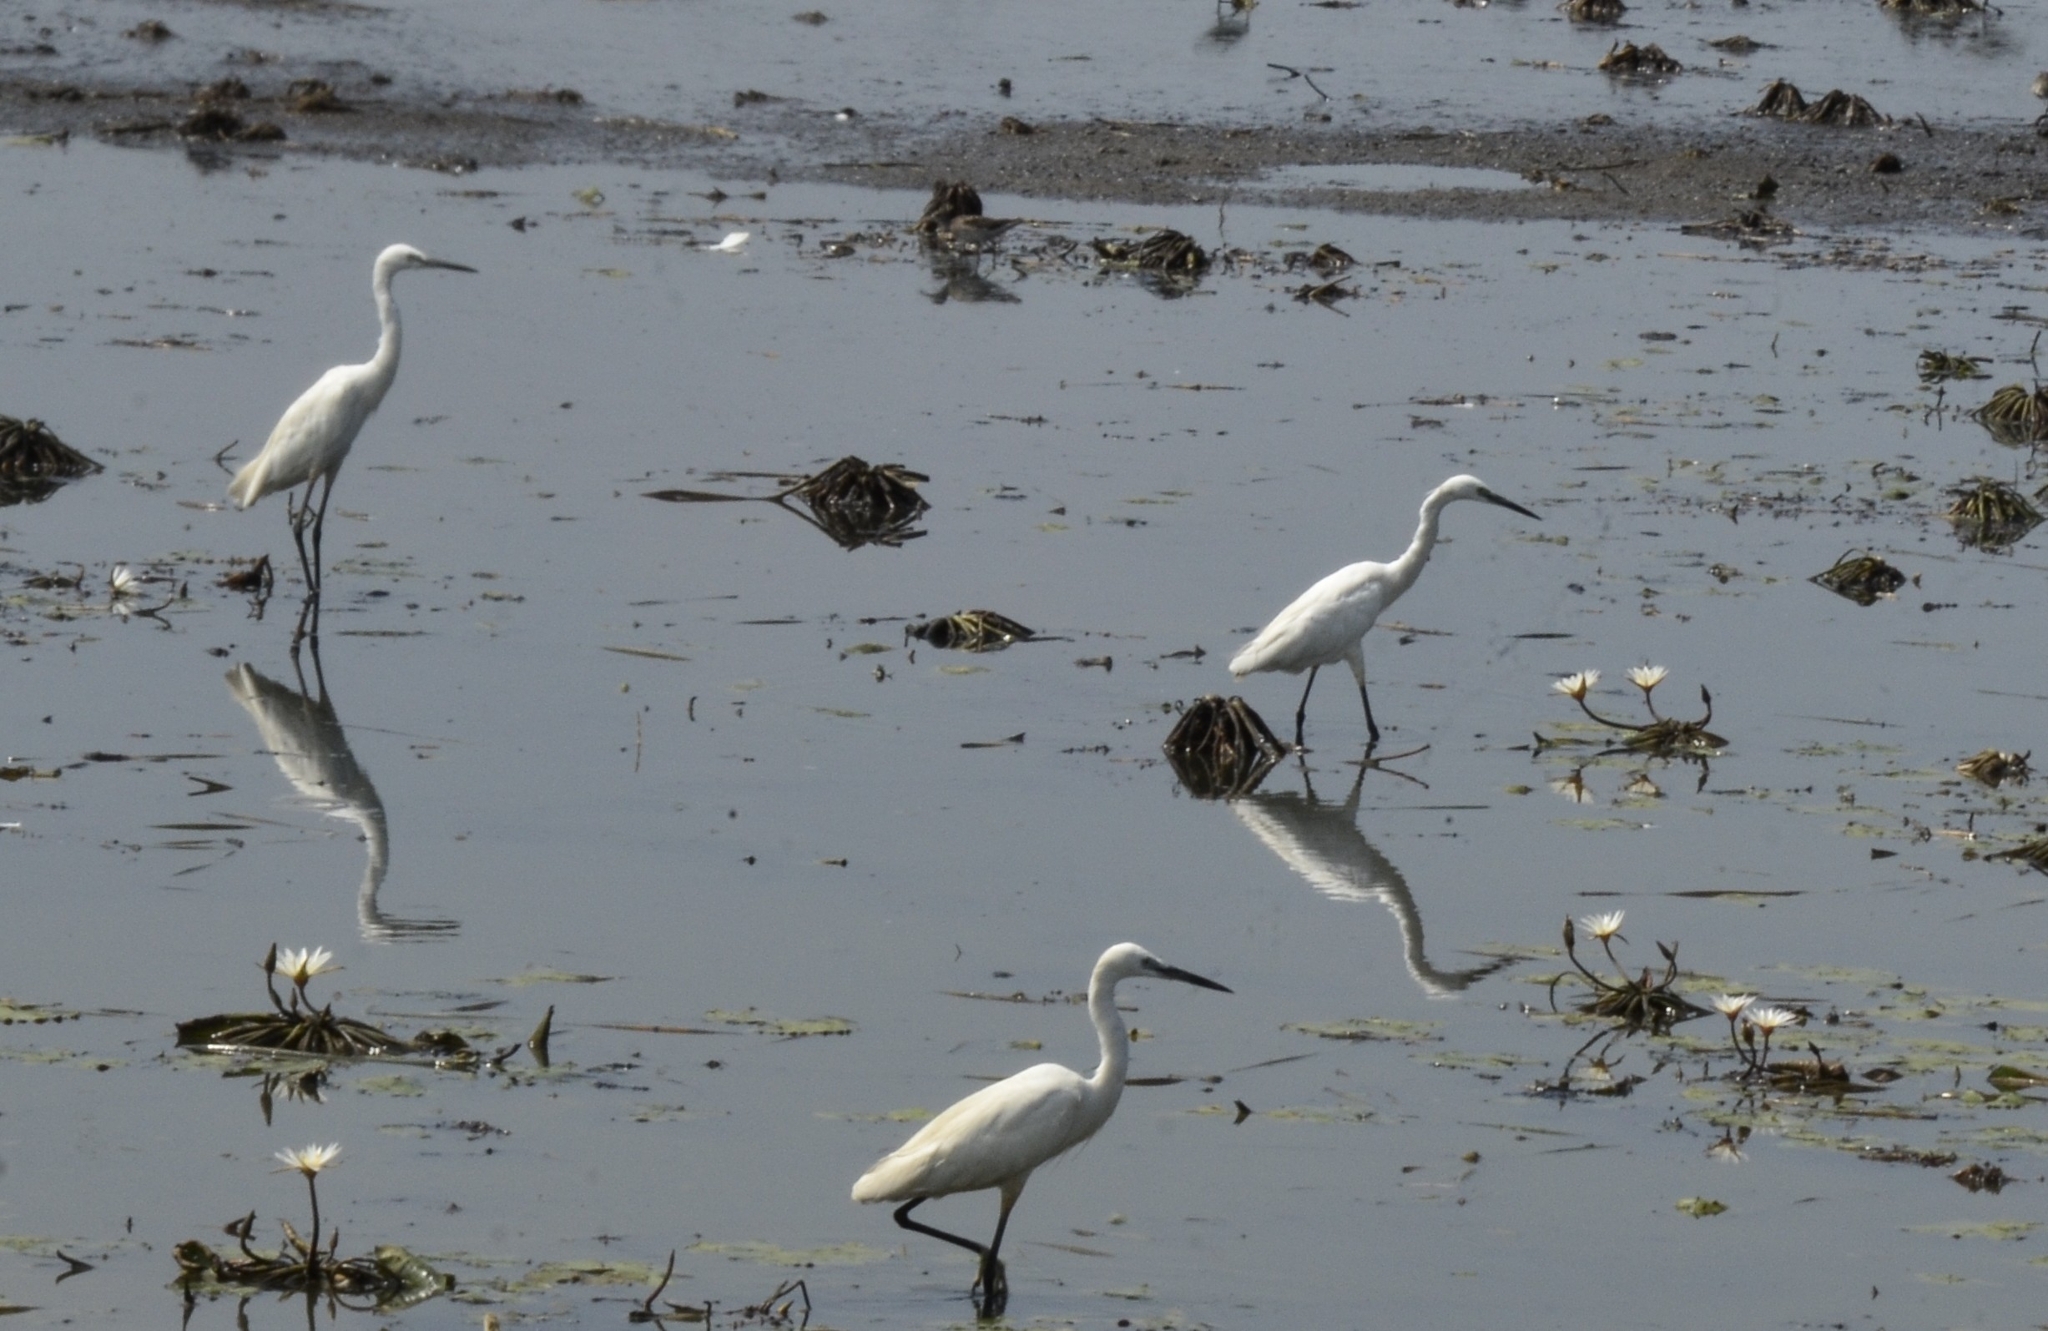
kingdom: Animalia
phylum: Chordata
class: Aves
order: Pelecaniformes
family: Ardeidae
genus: Egretta
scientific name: Egretta garzetta
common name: Little egret
